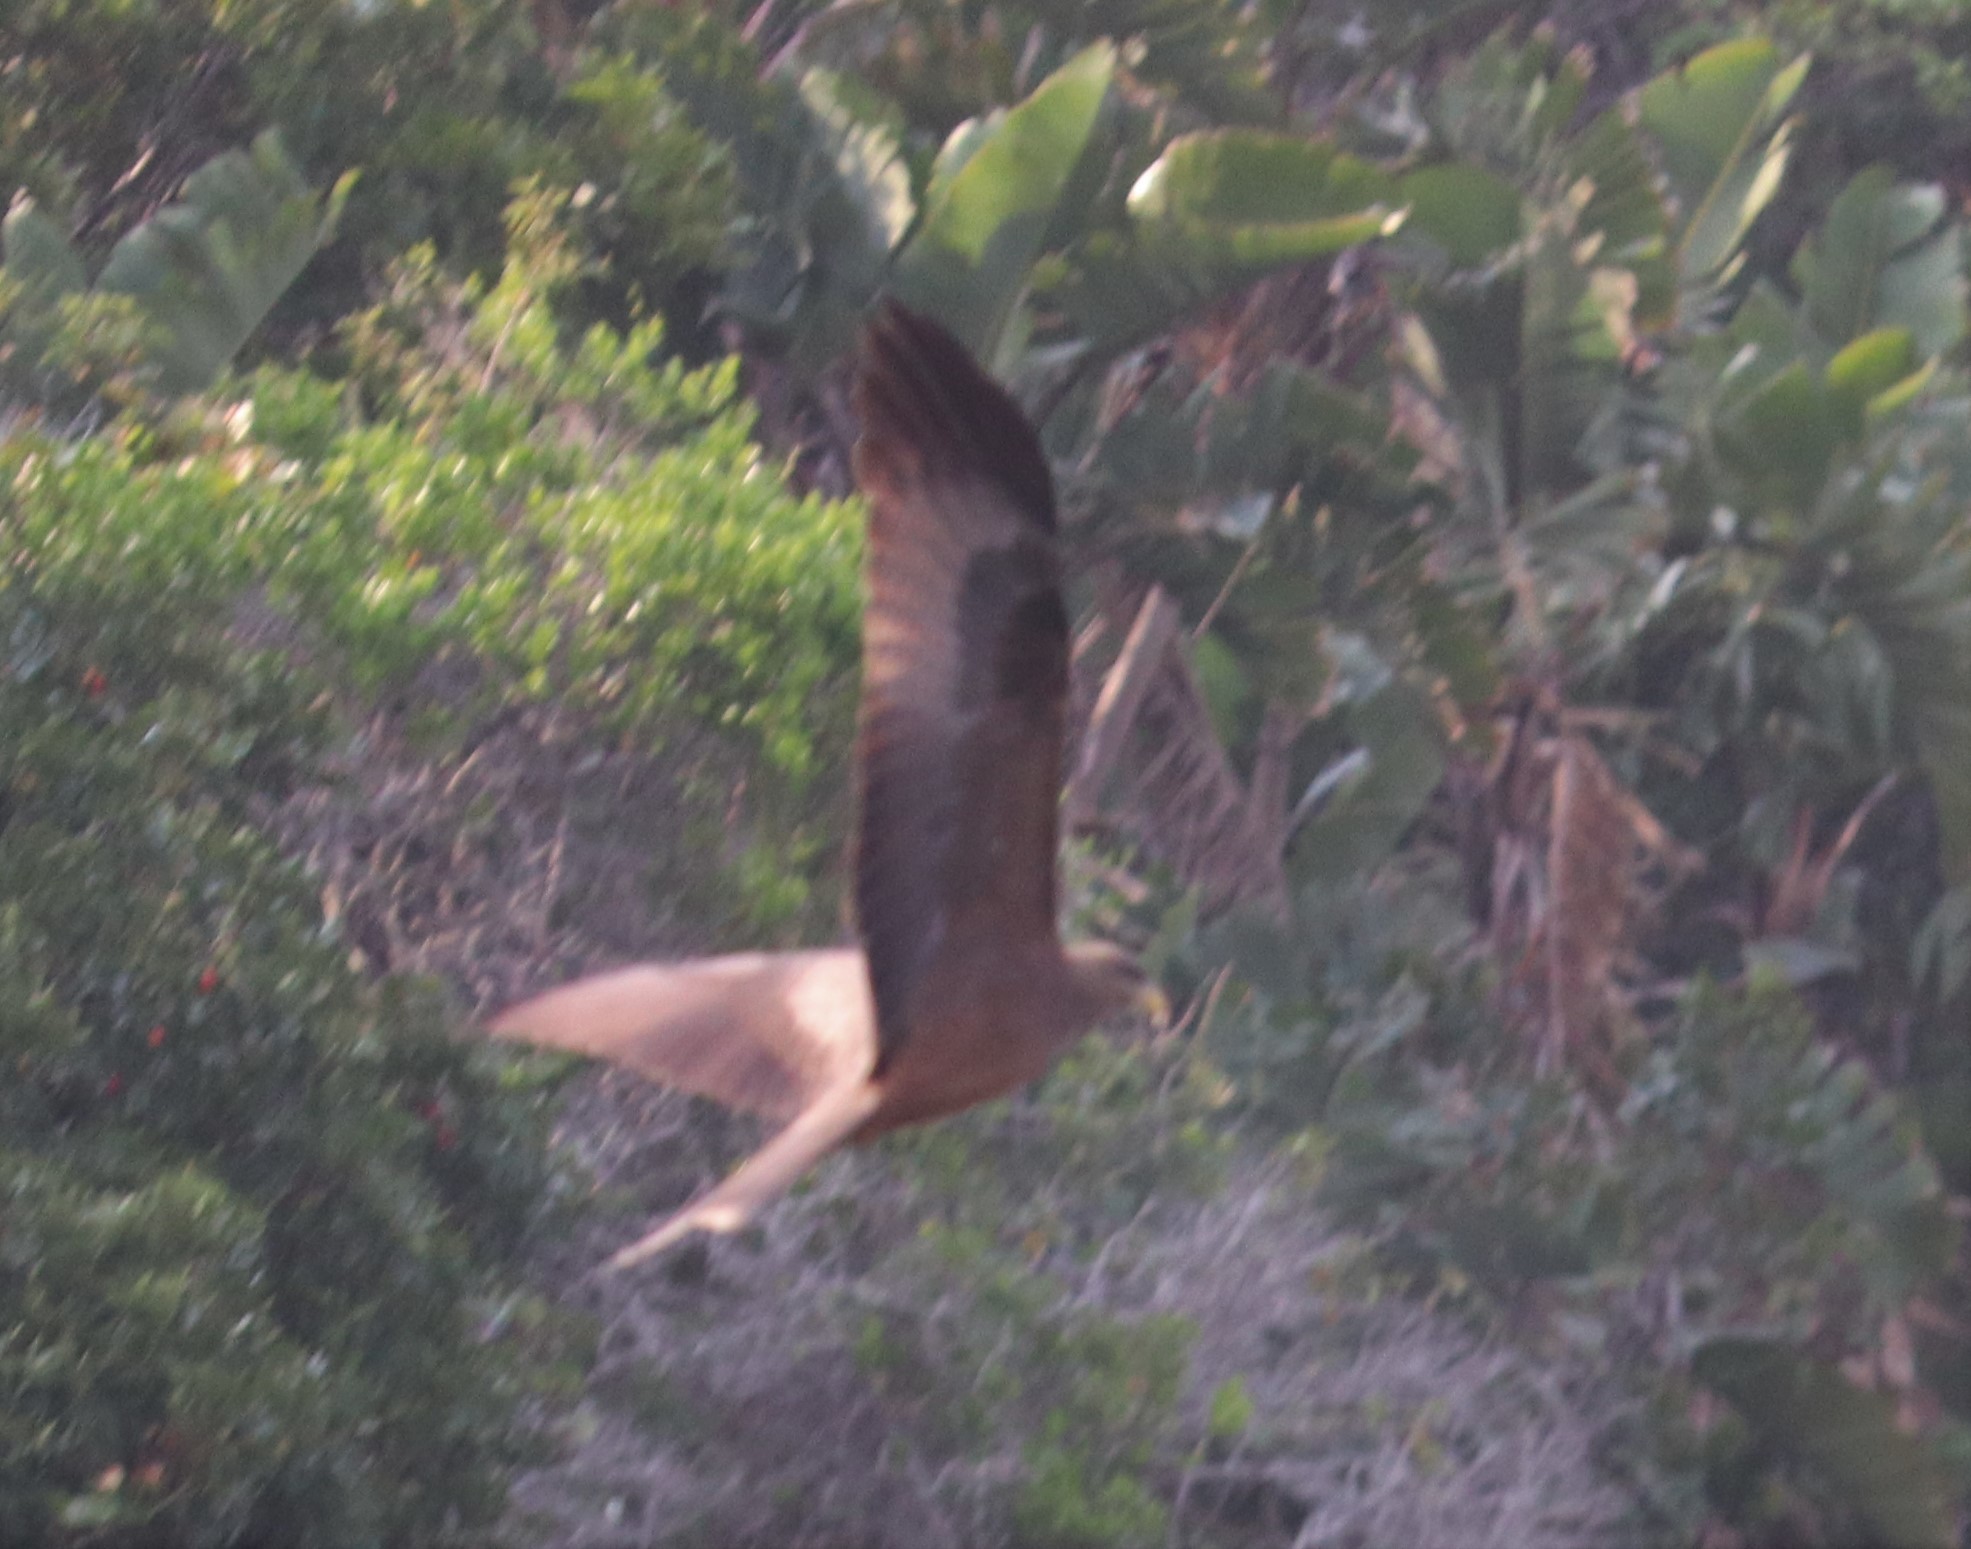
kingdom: Animalia
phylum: Chordata
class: Aves
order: Accipitriformes
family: Accipitridae
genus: Milvus
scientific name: Milvus migrans
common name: Black kite
